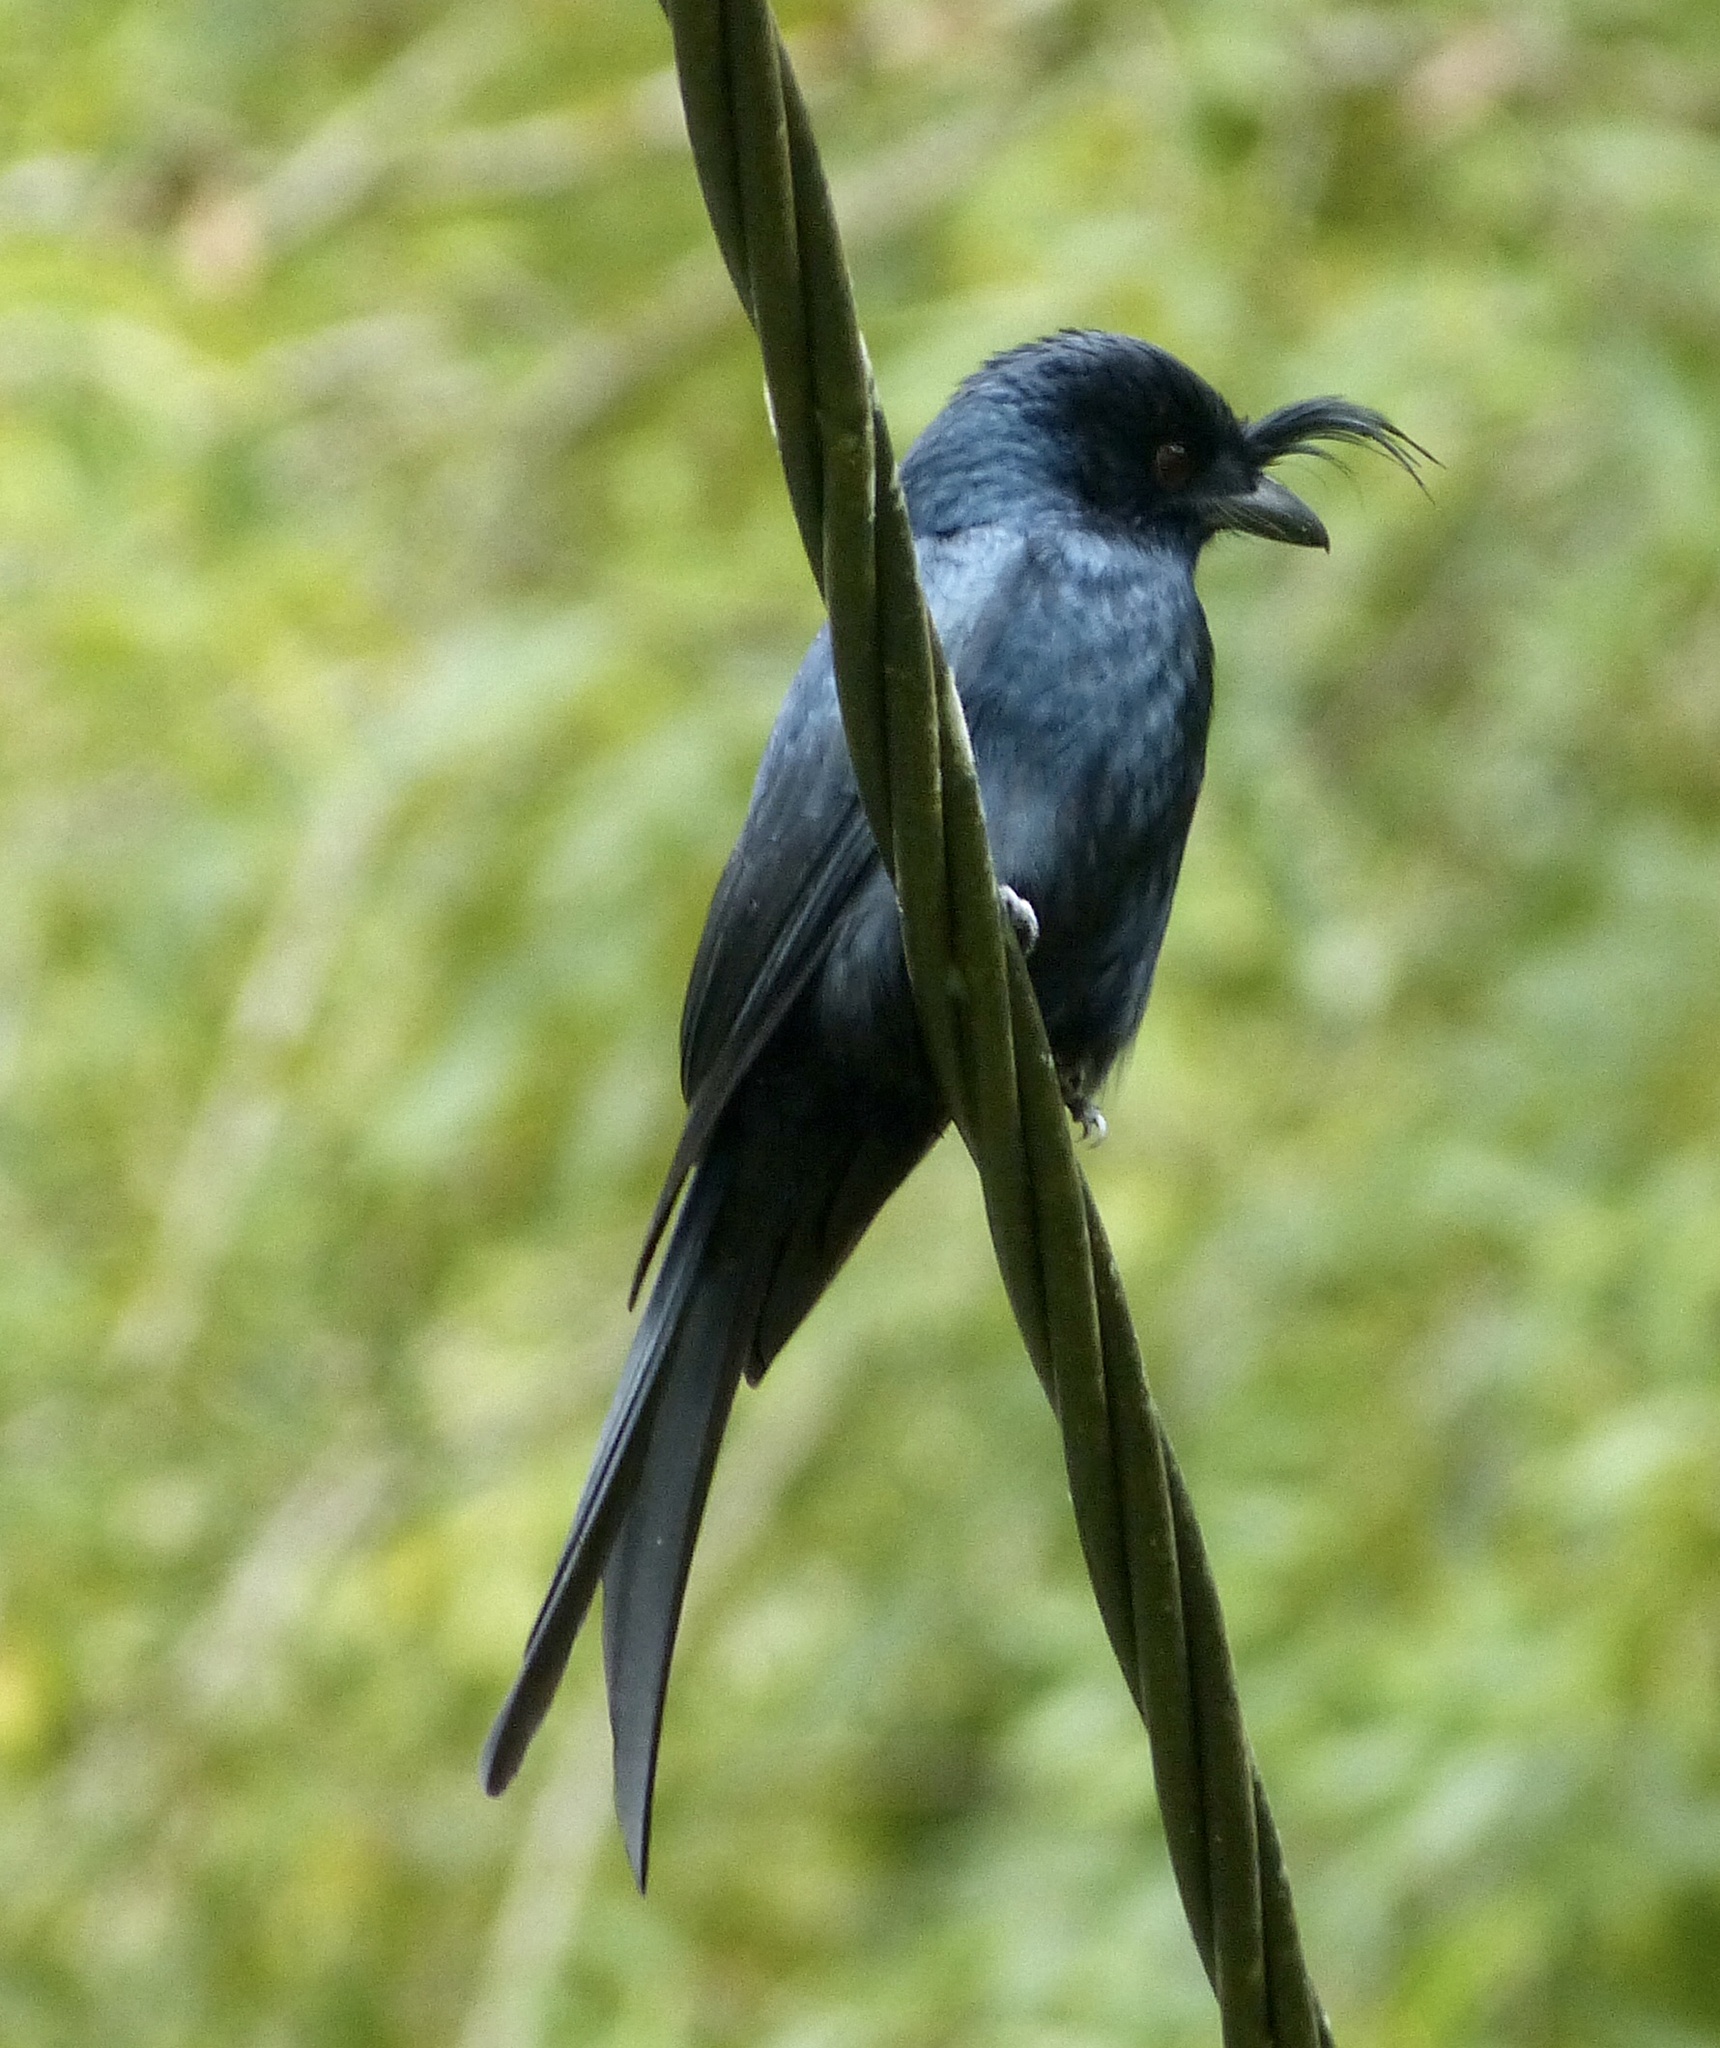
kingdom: Animalia
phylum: Chordata
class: Aves
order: Passeriformes
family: Dicruridae
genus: Dicrurus
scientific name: Dicrurus forficatus
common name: Crested drongo
